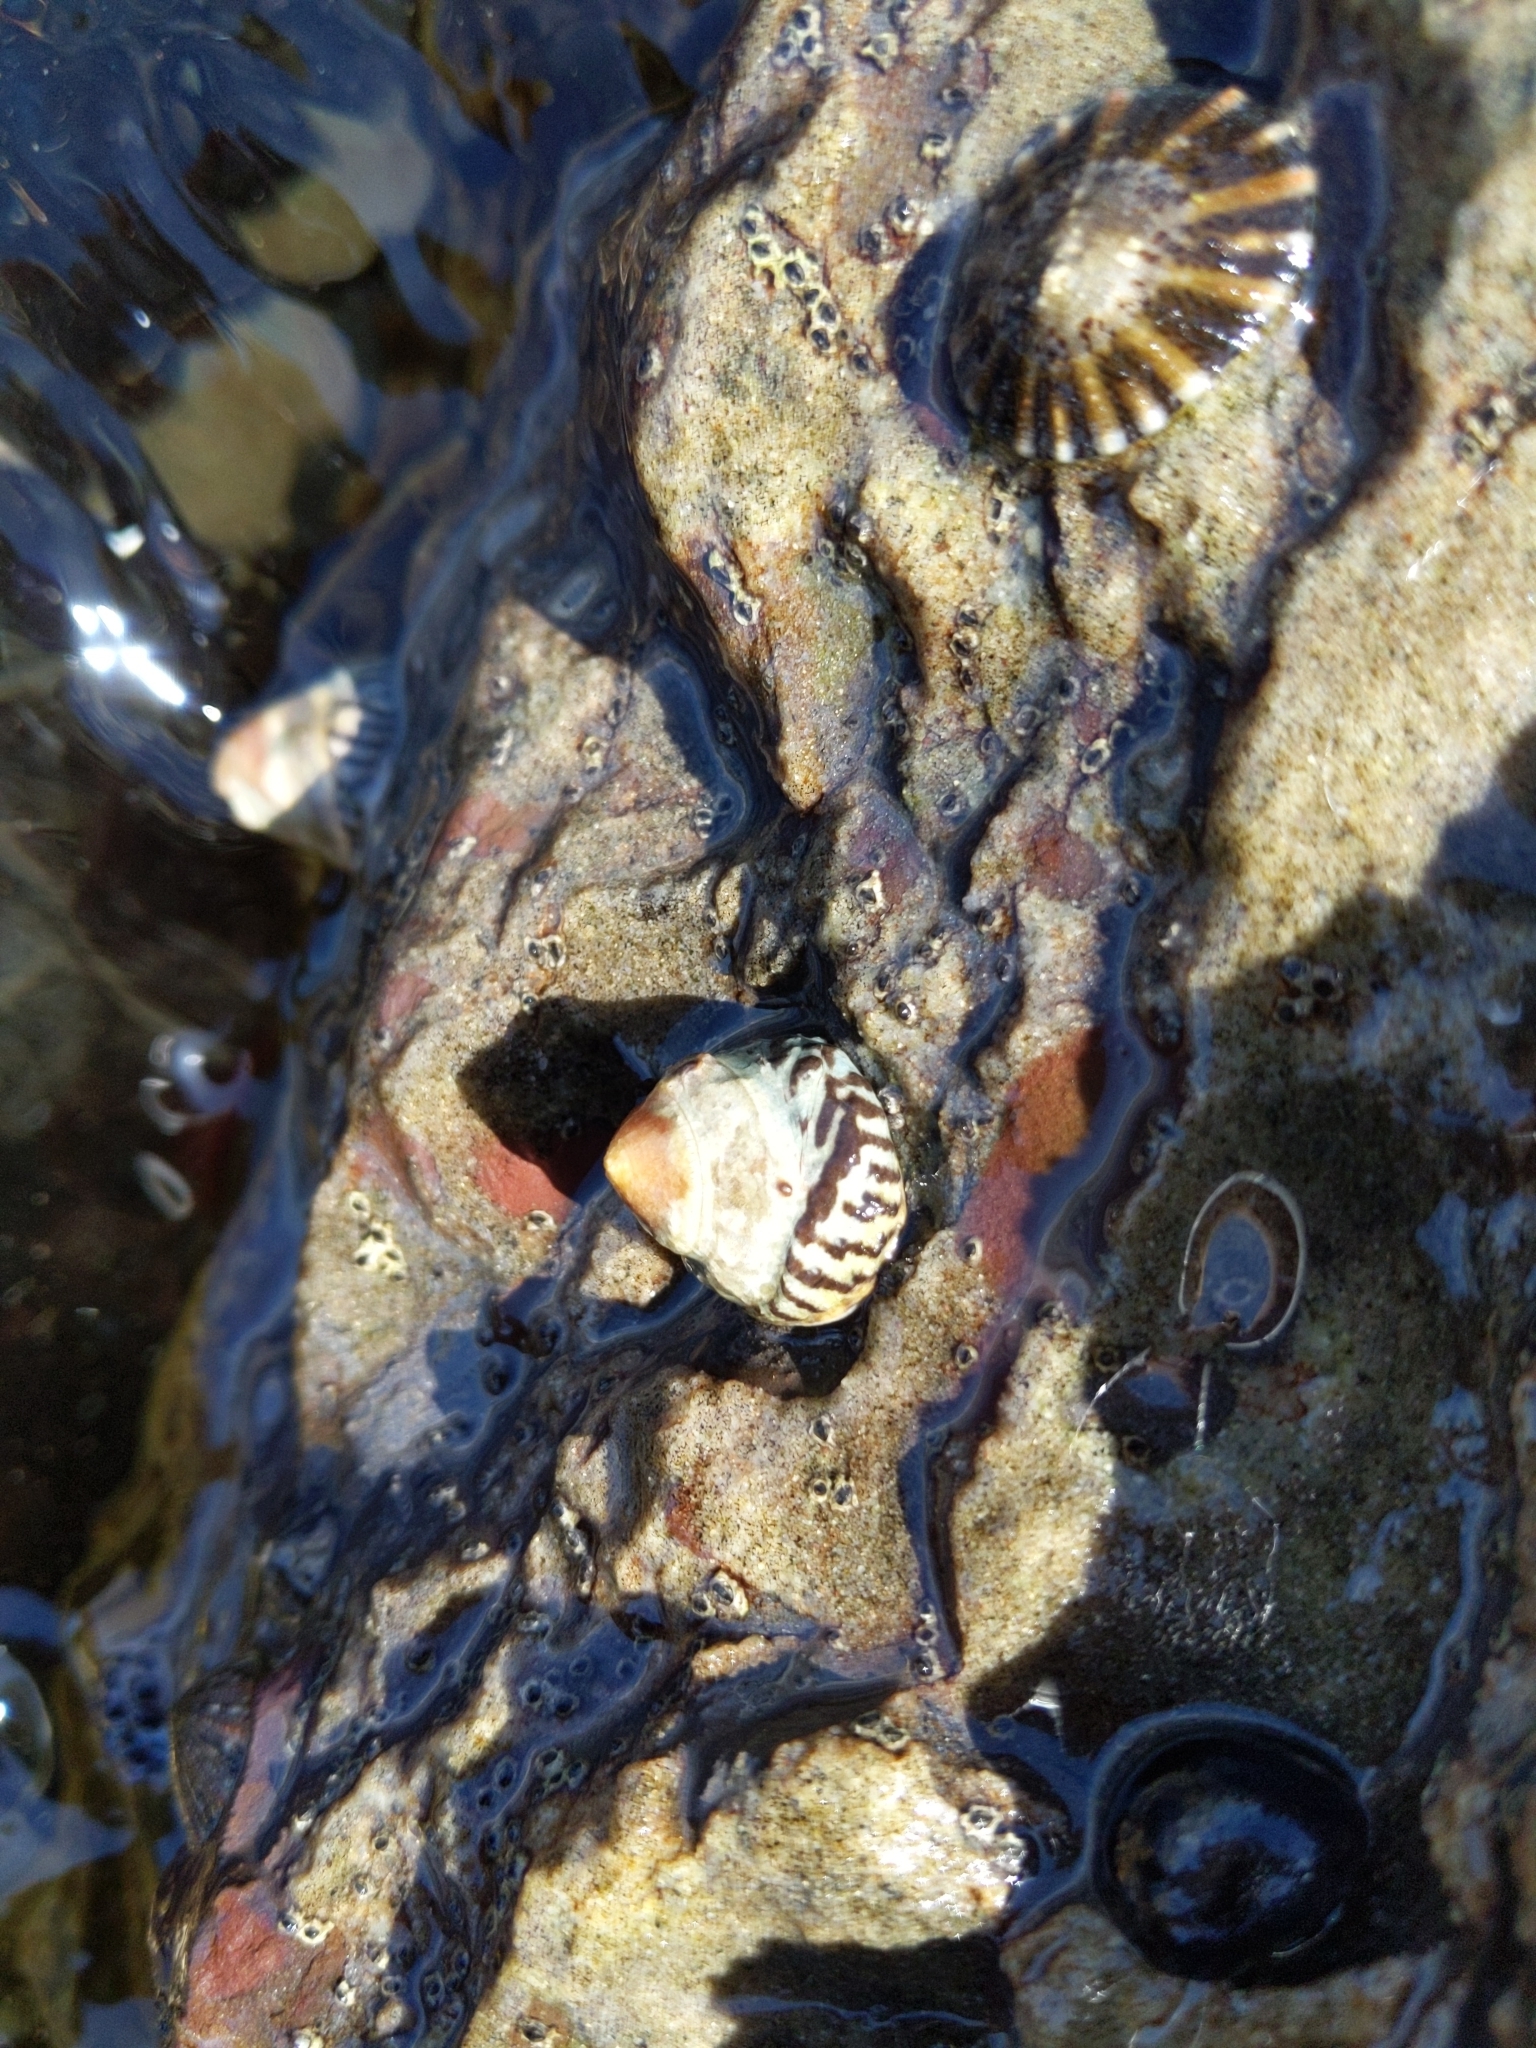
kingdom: Animalia
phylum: Mollusca
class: Gastropoda
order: Littorinimorpha
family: Littorinidae
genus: Bembicium
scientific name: Bembicium nanum
